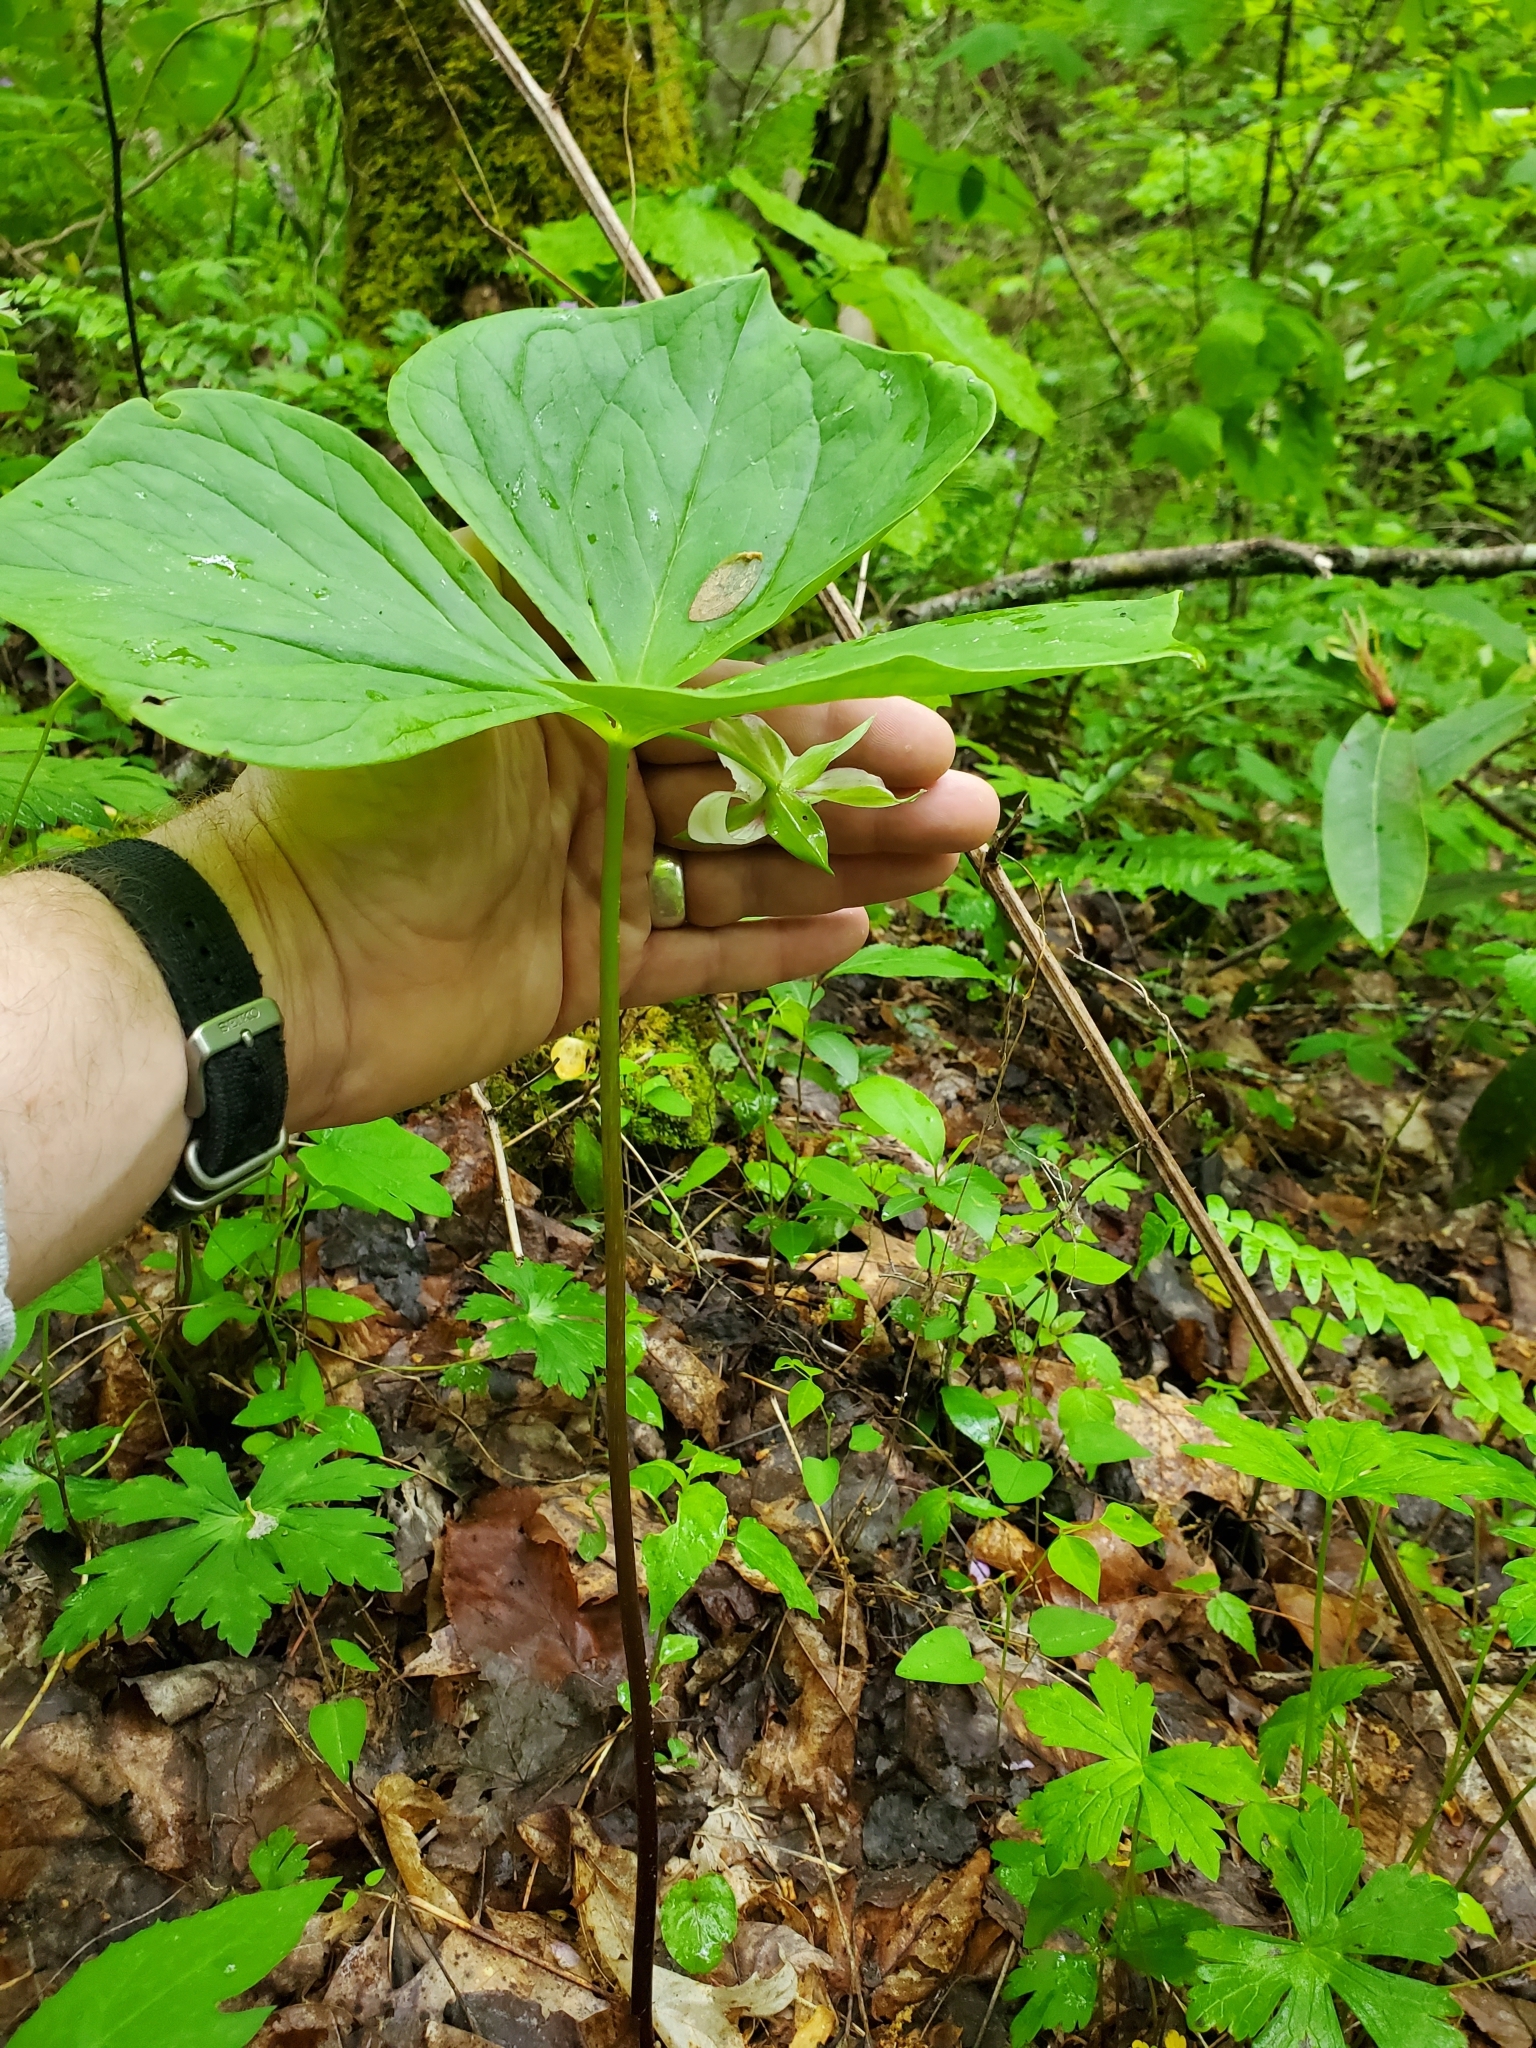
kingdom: Plantae
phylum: Tracheophyta
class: Liliopsida
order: Liliales
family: Melanthiaceae
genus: Trillium
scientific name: Trillium rugelii
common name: Ill-scented trillium
